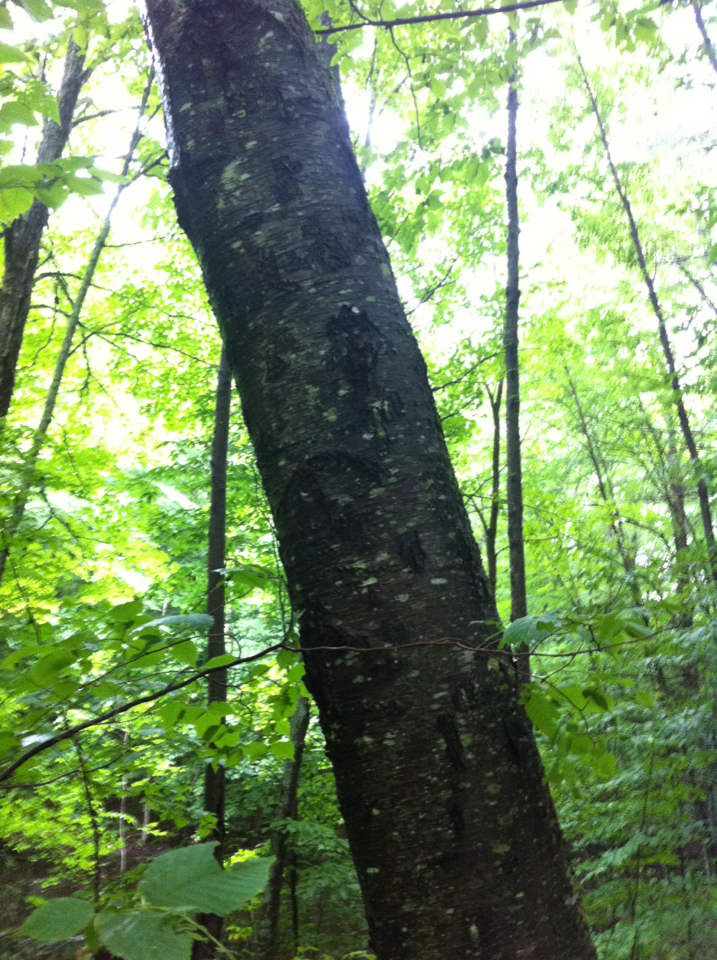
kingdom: Plantae
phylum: Tracheophyta
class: Magnoliopsida
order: Fagales
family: Betulaceae
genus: Betula
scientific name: Betula lenta
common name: Black birch
